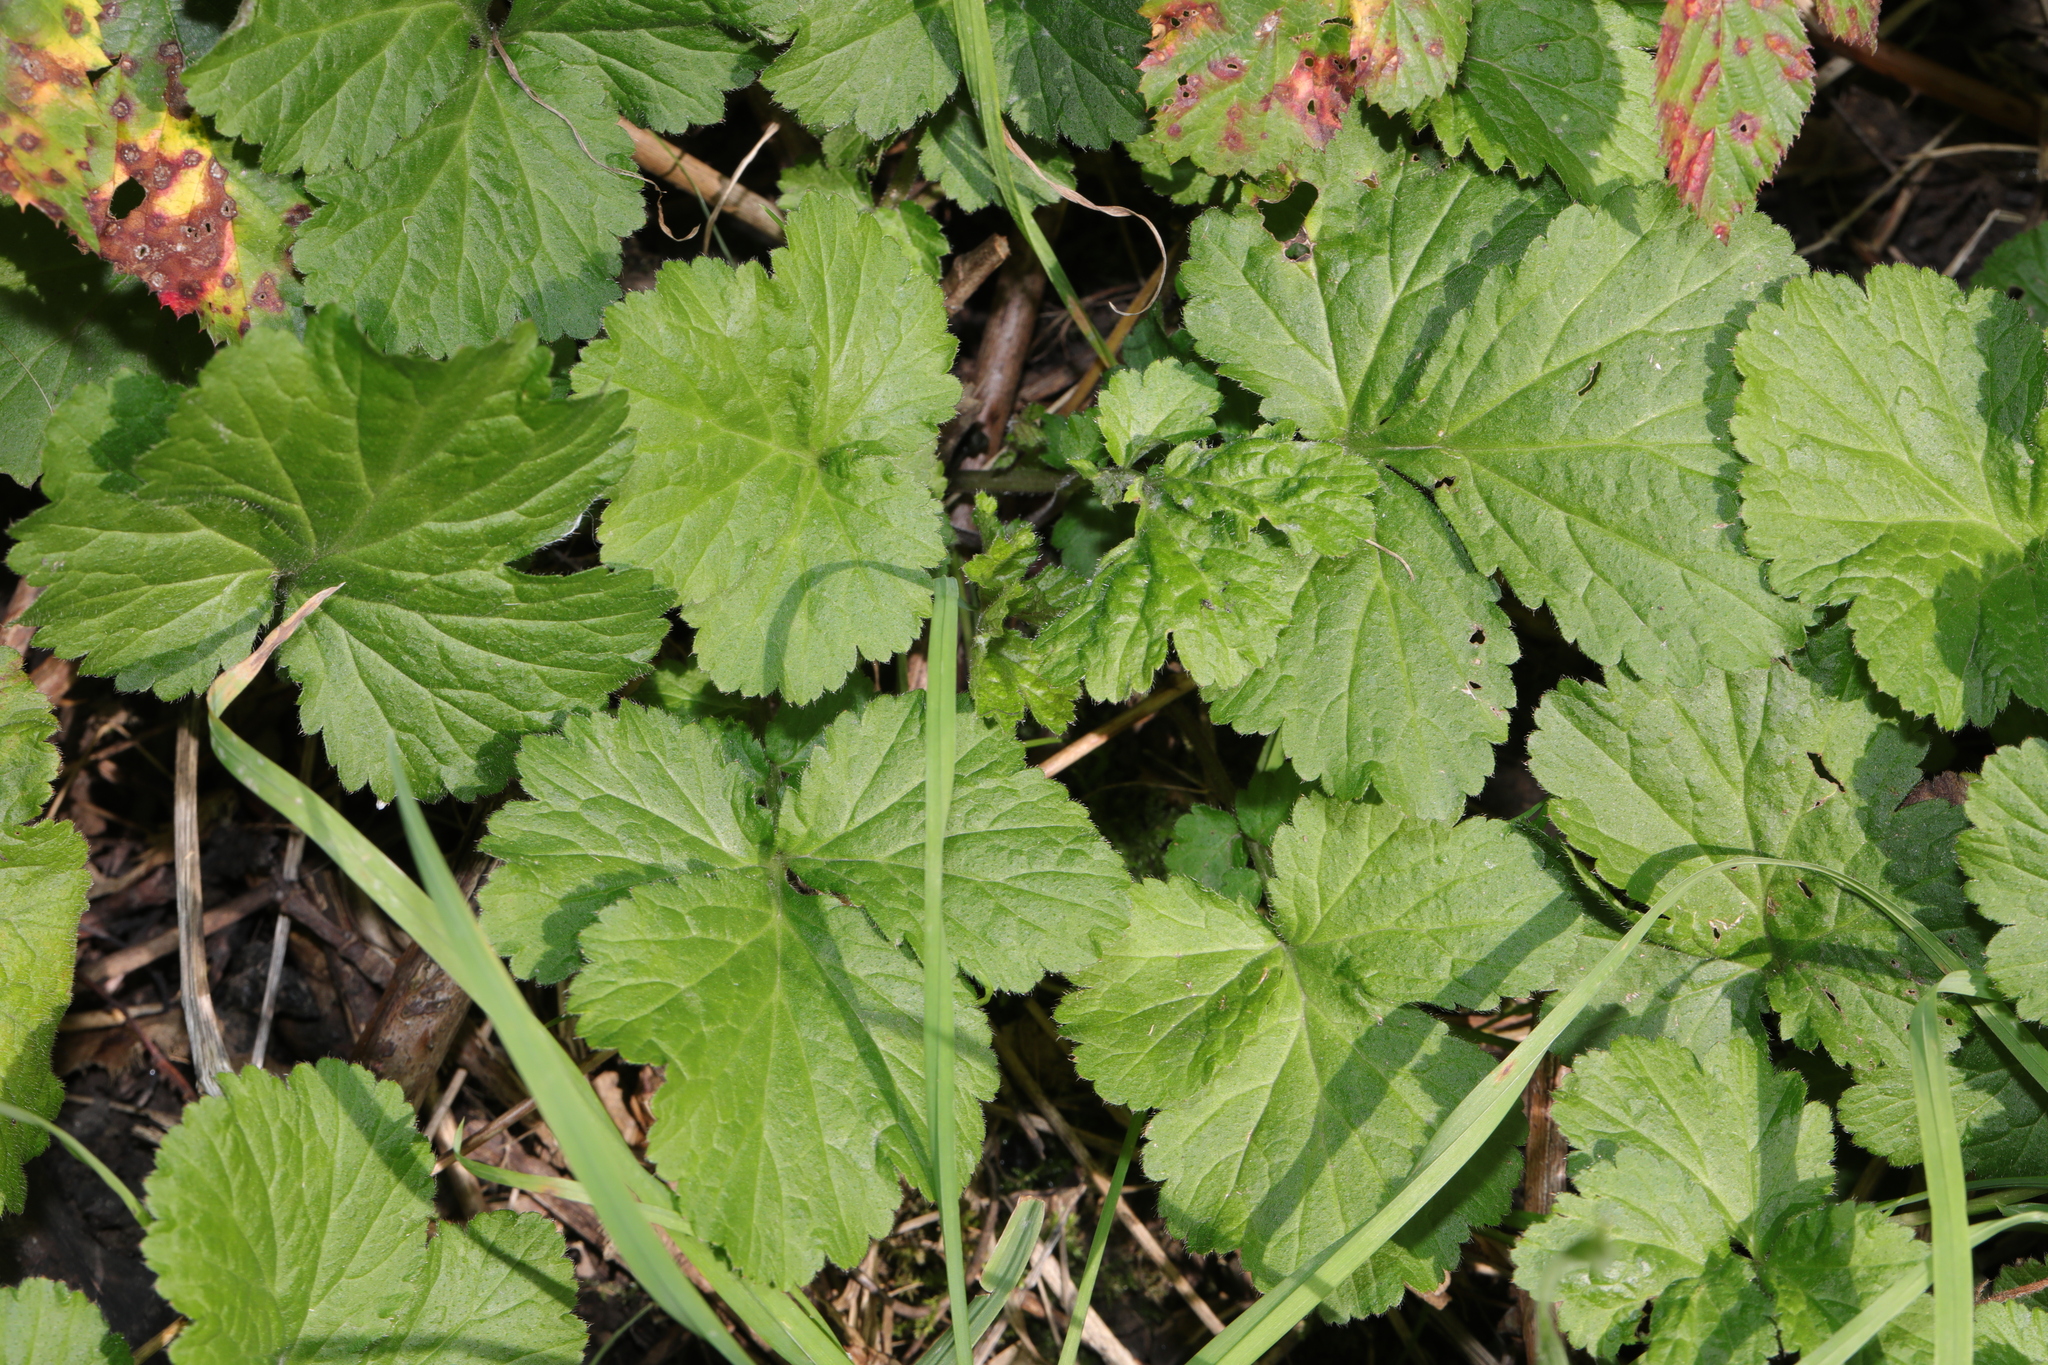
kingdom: Plantae
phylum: Tracheophyta
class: Magnoliopsida
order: Rosales
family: Rosaceae
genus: Geum
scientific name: Geum urbanum
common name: Wood avens
